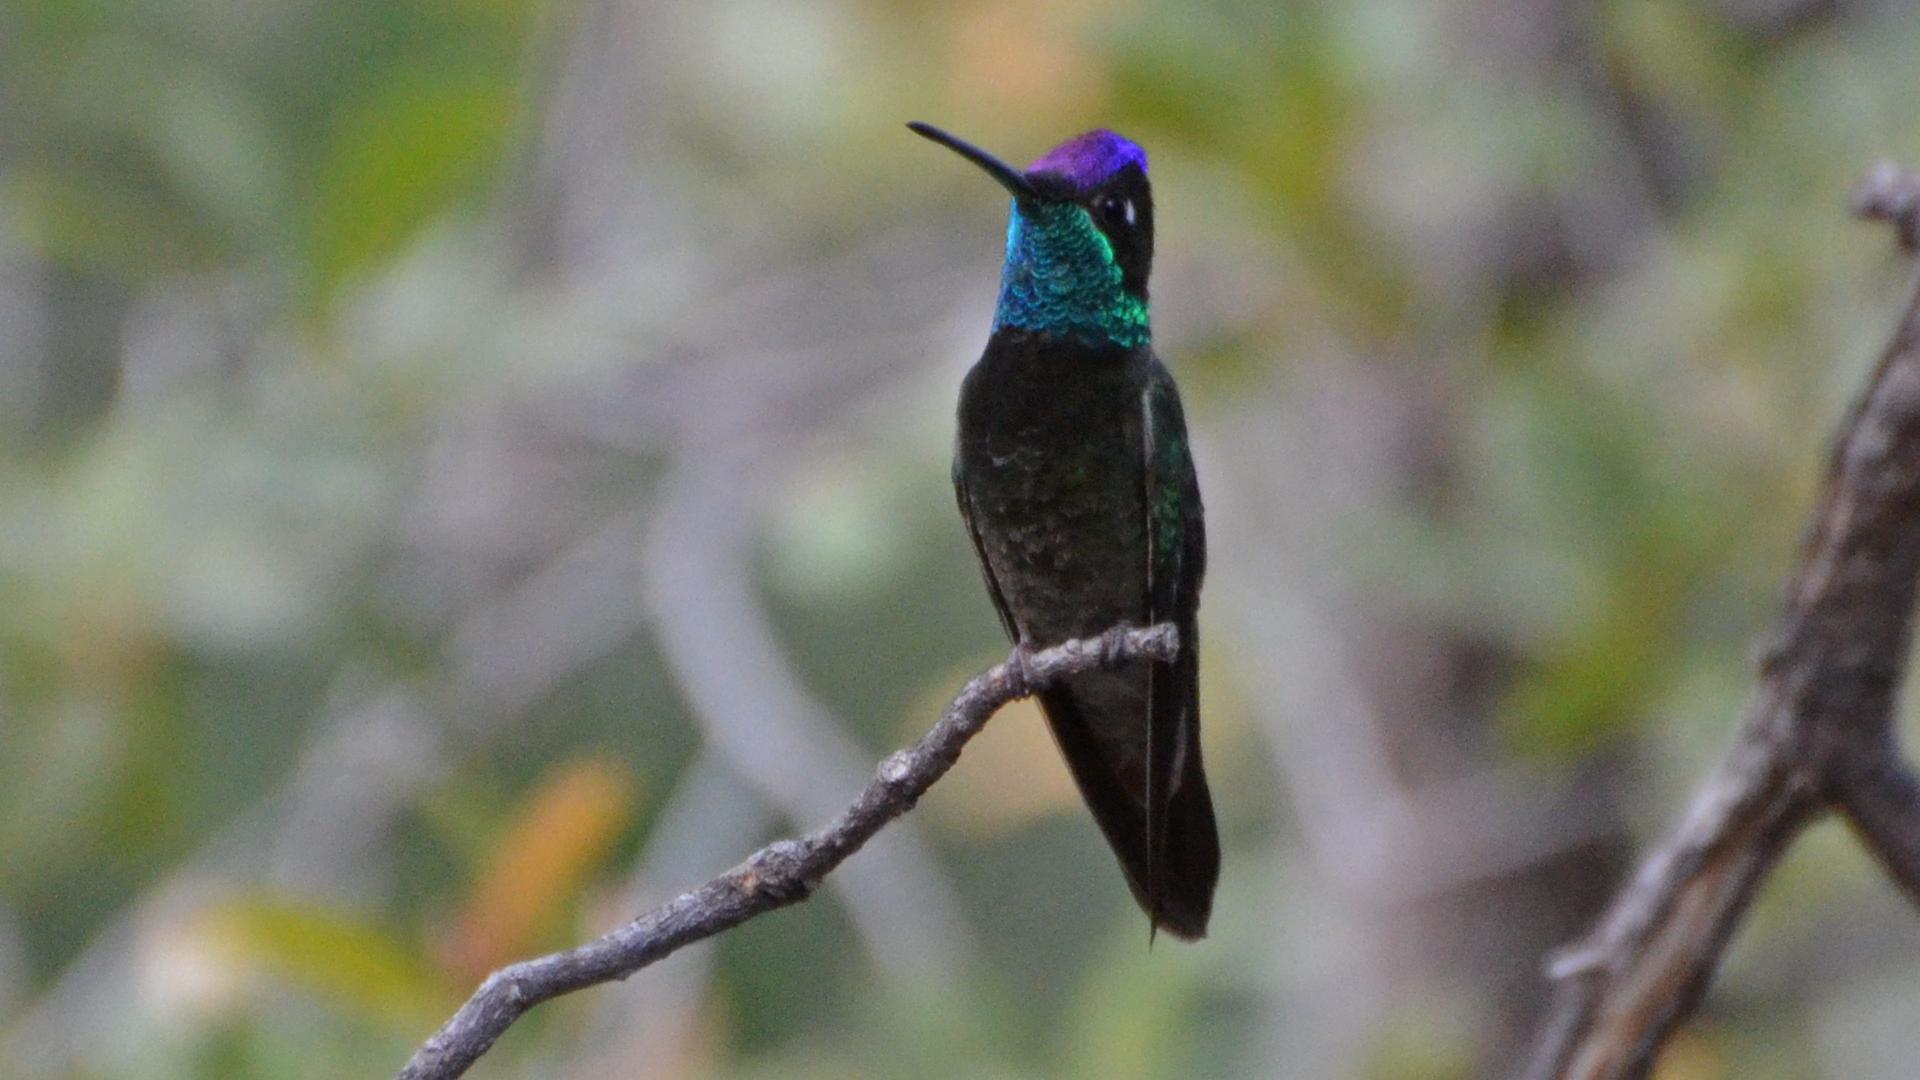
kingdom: Animalia
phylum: Chordata
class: Aves
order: Apodiformes
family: Trochilidae
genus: Eugenes
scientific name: Eugenes fulgens
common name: Magnificent hummingbird
